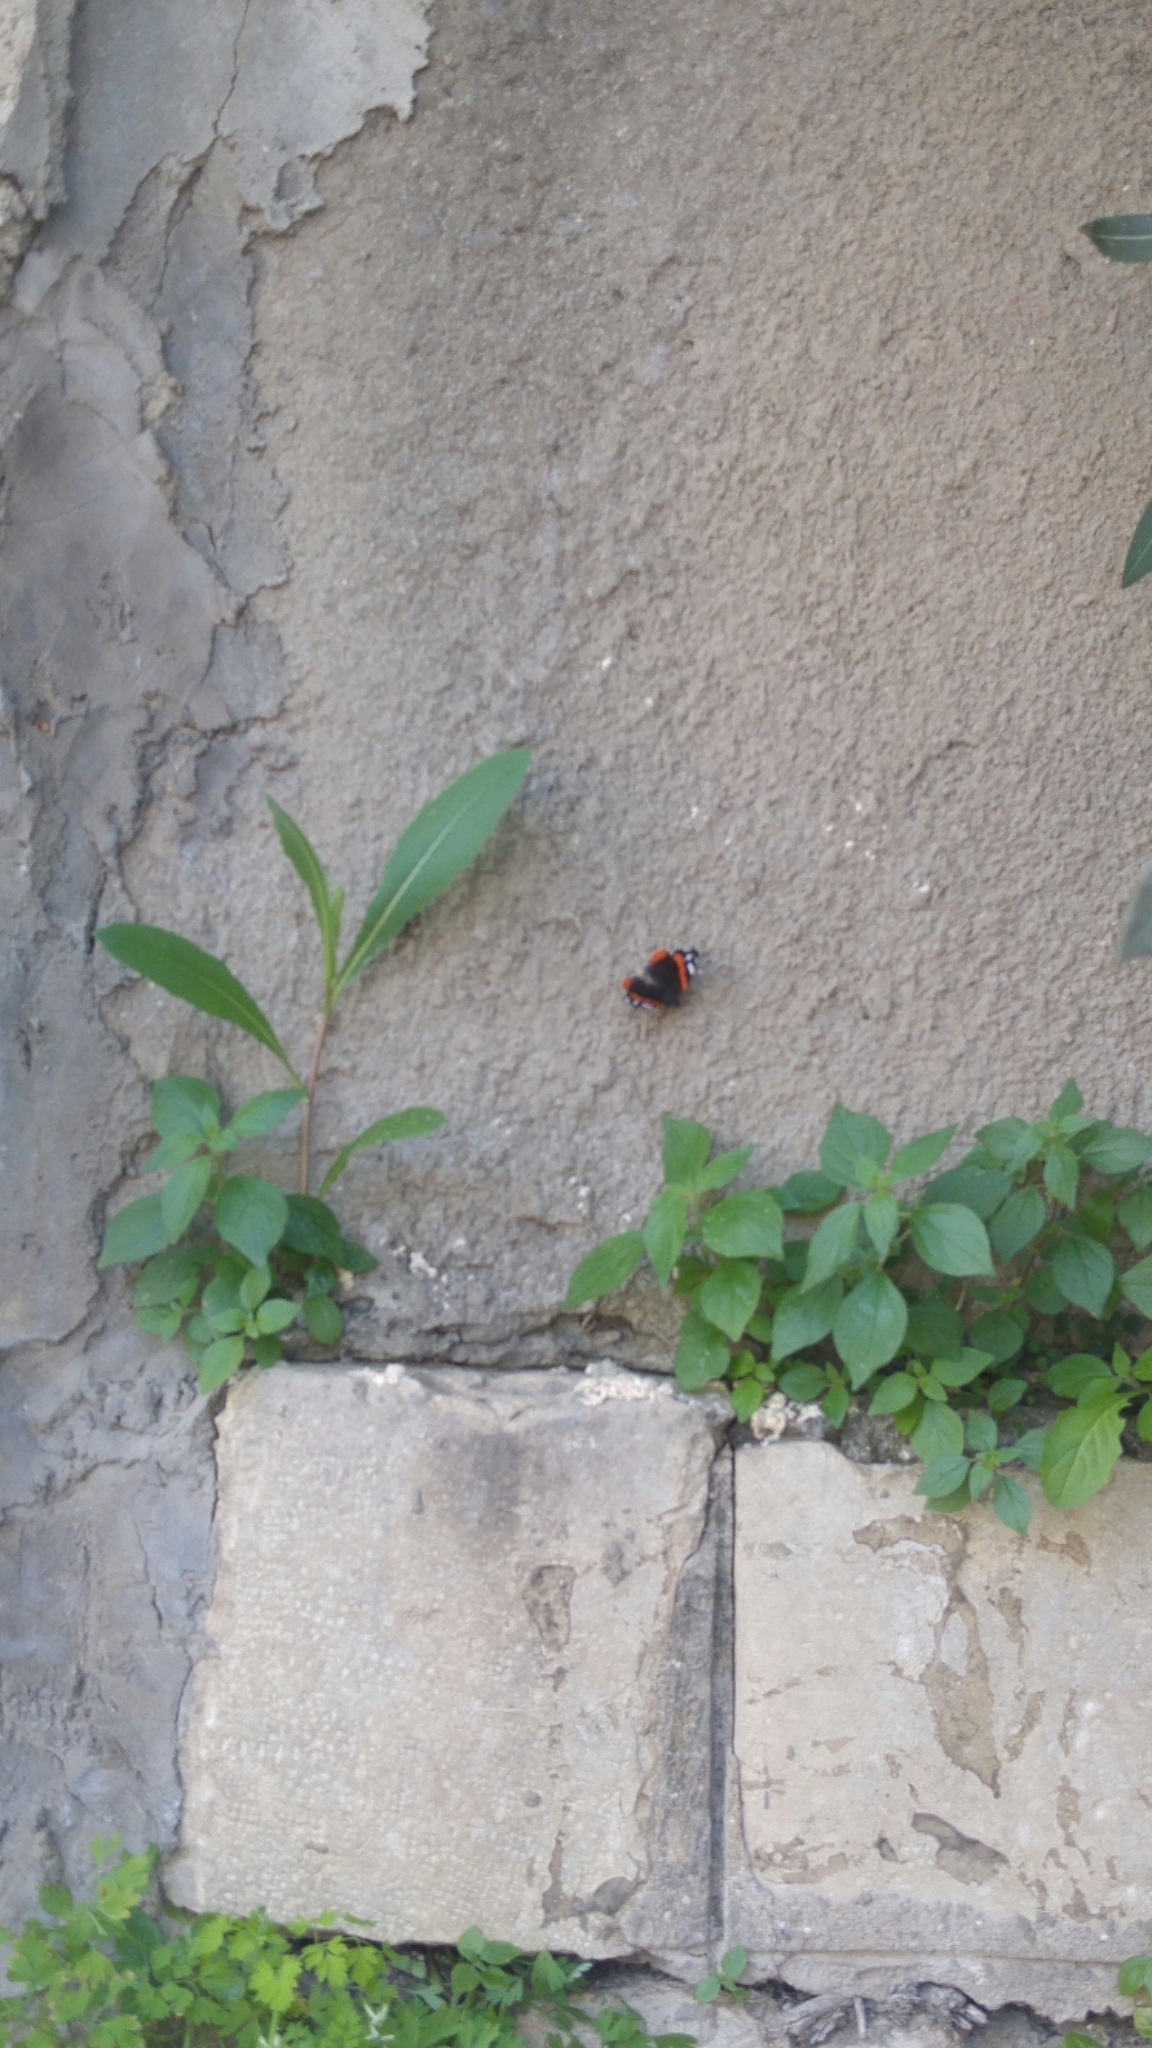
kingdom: Animalia
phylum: Arthropoda
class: Insecta
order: Lepidoptera
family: Nymphalidae
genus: Vanessa
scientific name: Vanessa atalanta
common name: Red admiral
